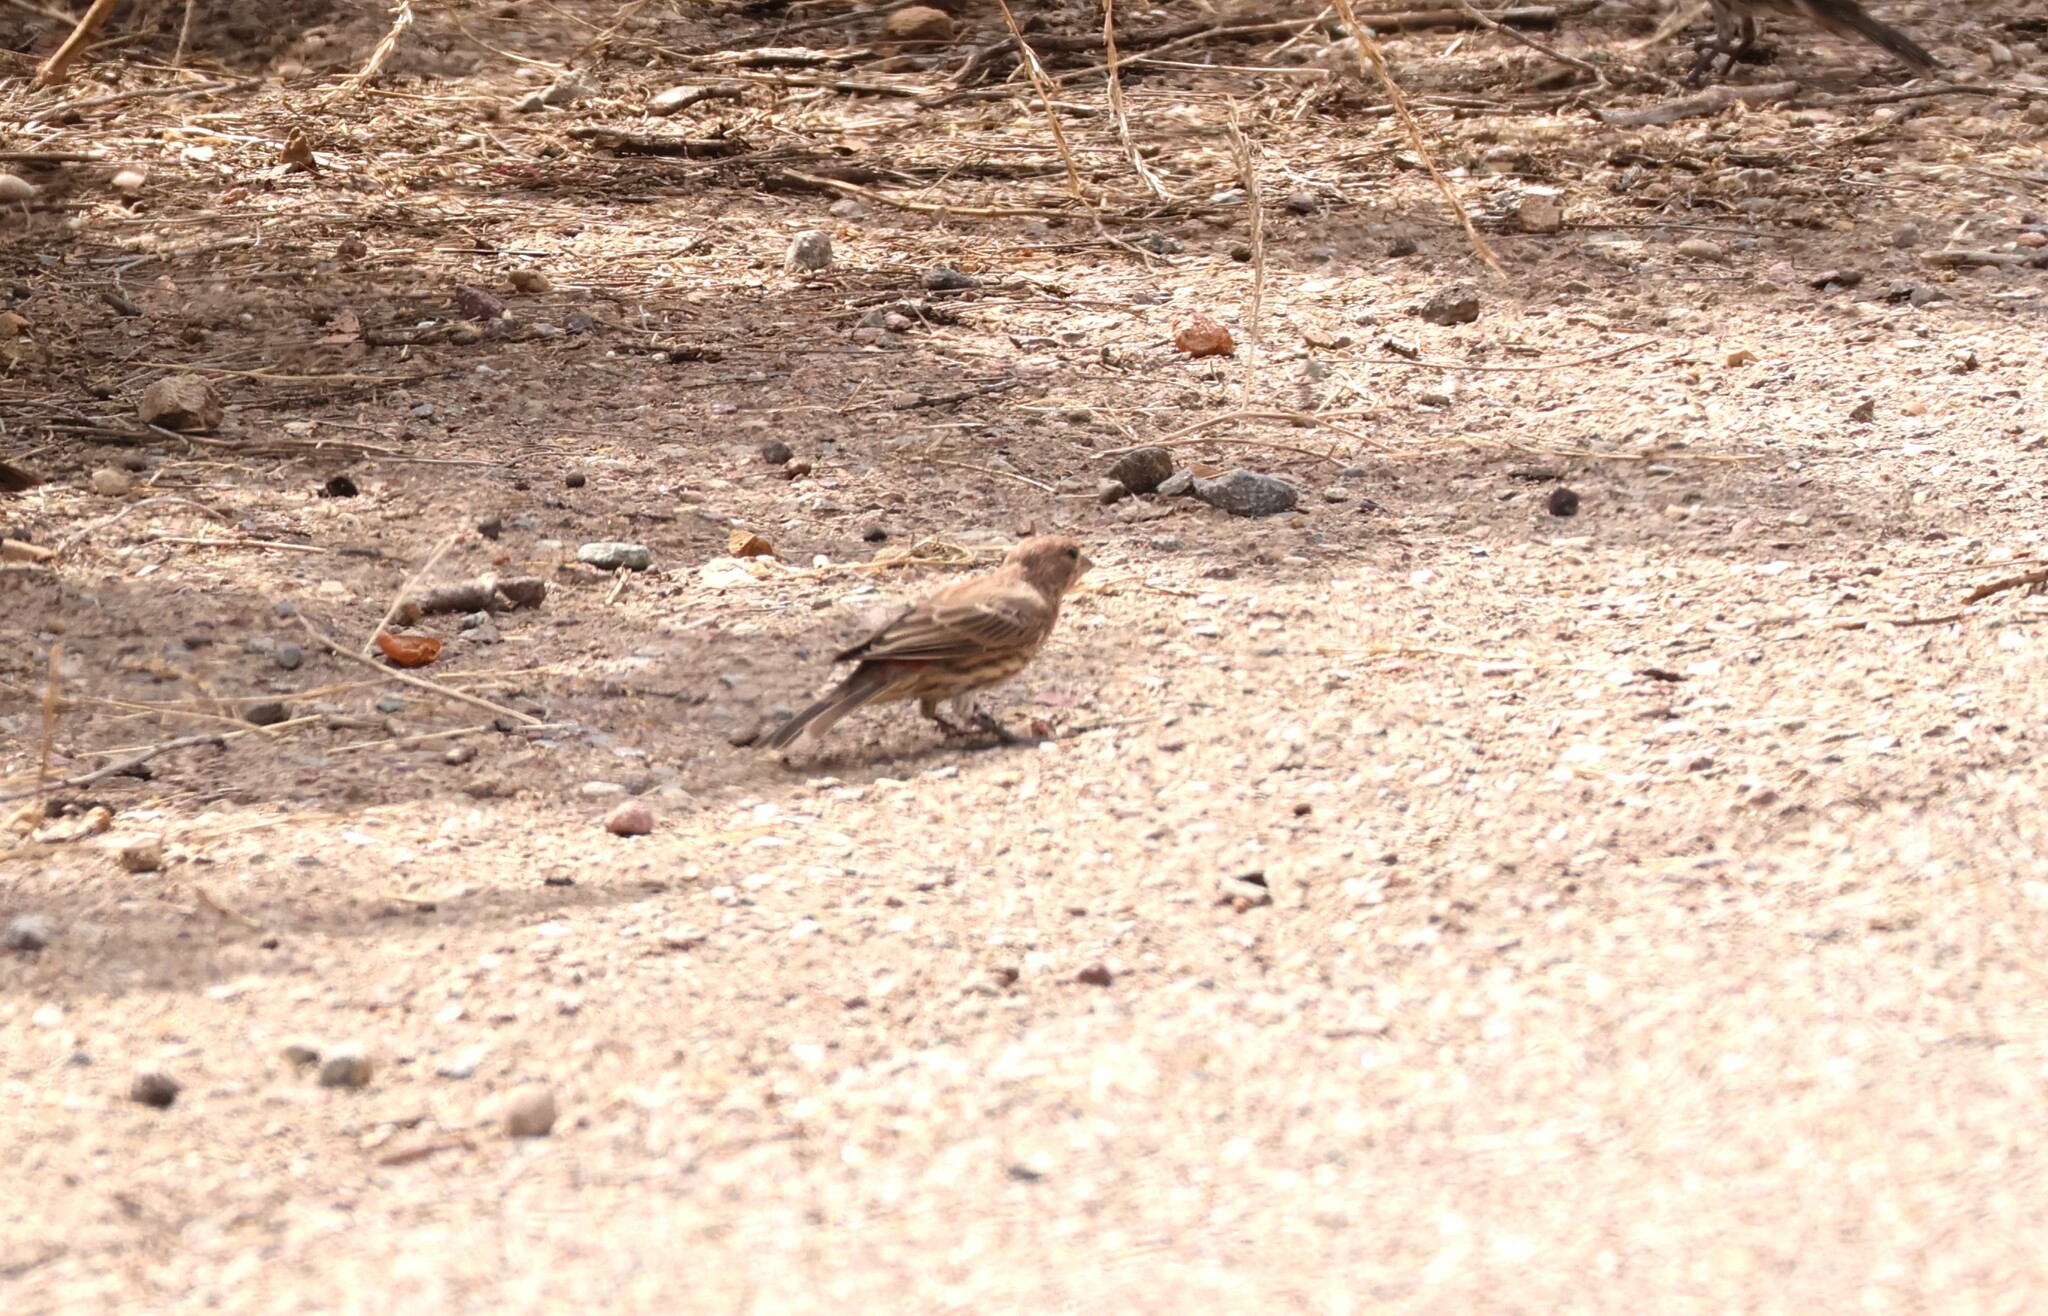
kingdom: Animalia
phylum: Chordata
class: Aves
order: Passeriformes
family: Fringillidae
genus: Haemorhous
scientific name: Haemorhous mexicanus
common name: House finch
